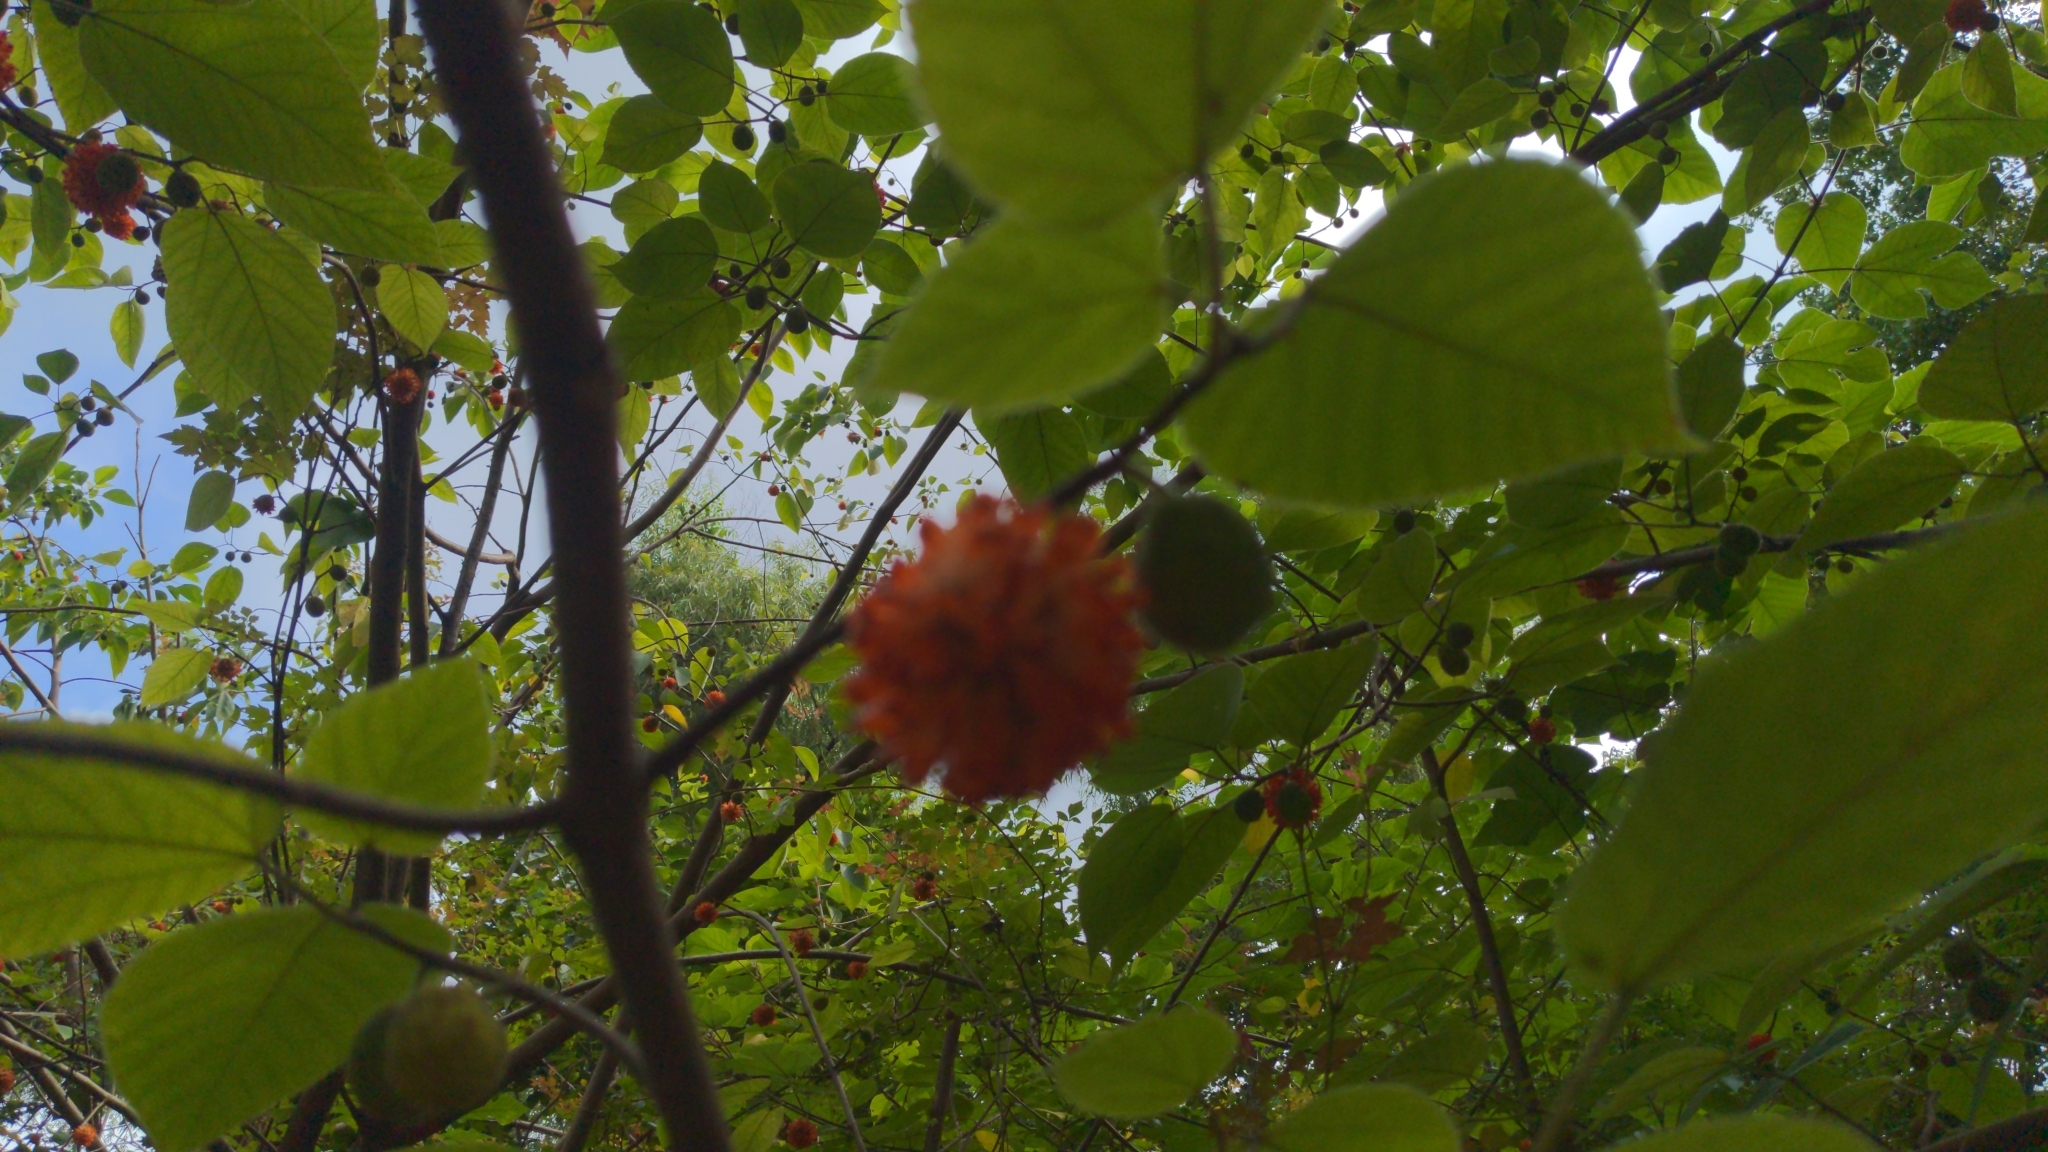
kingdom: Plantae
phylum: Tracheophyta
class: Magnoliopsida
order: Rosales
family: Moraceae
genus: Broussonetia
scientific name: Broussonetia papyrifera
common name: Paper mulberry
